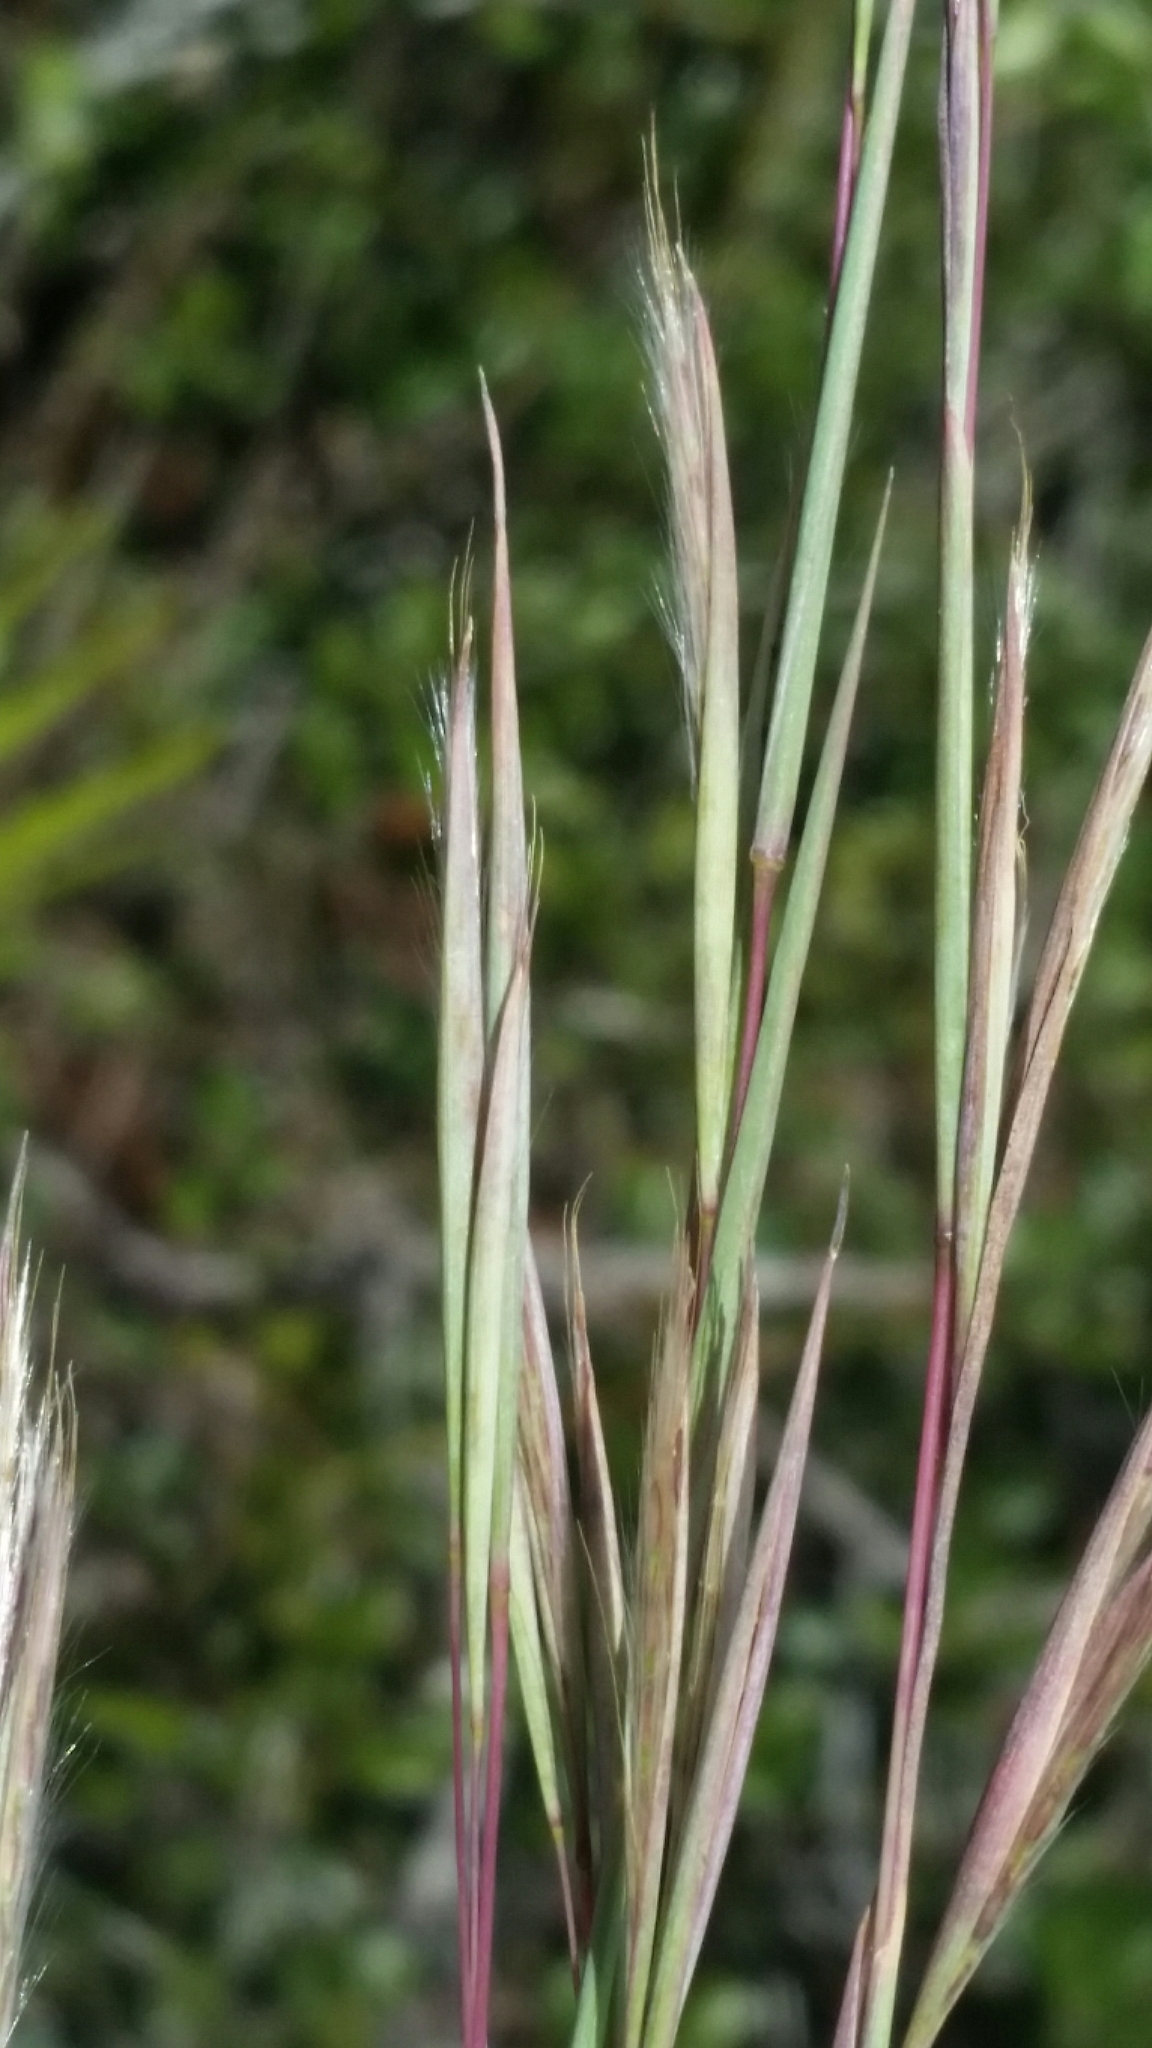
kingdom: Plantae
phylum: Tracheophyta
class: Liliopsida
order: Poales
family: Poaceae
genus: Andropogon
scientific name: Andropogon capillipes
